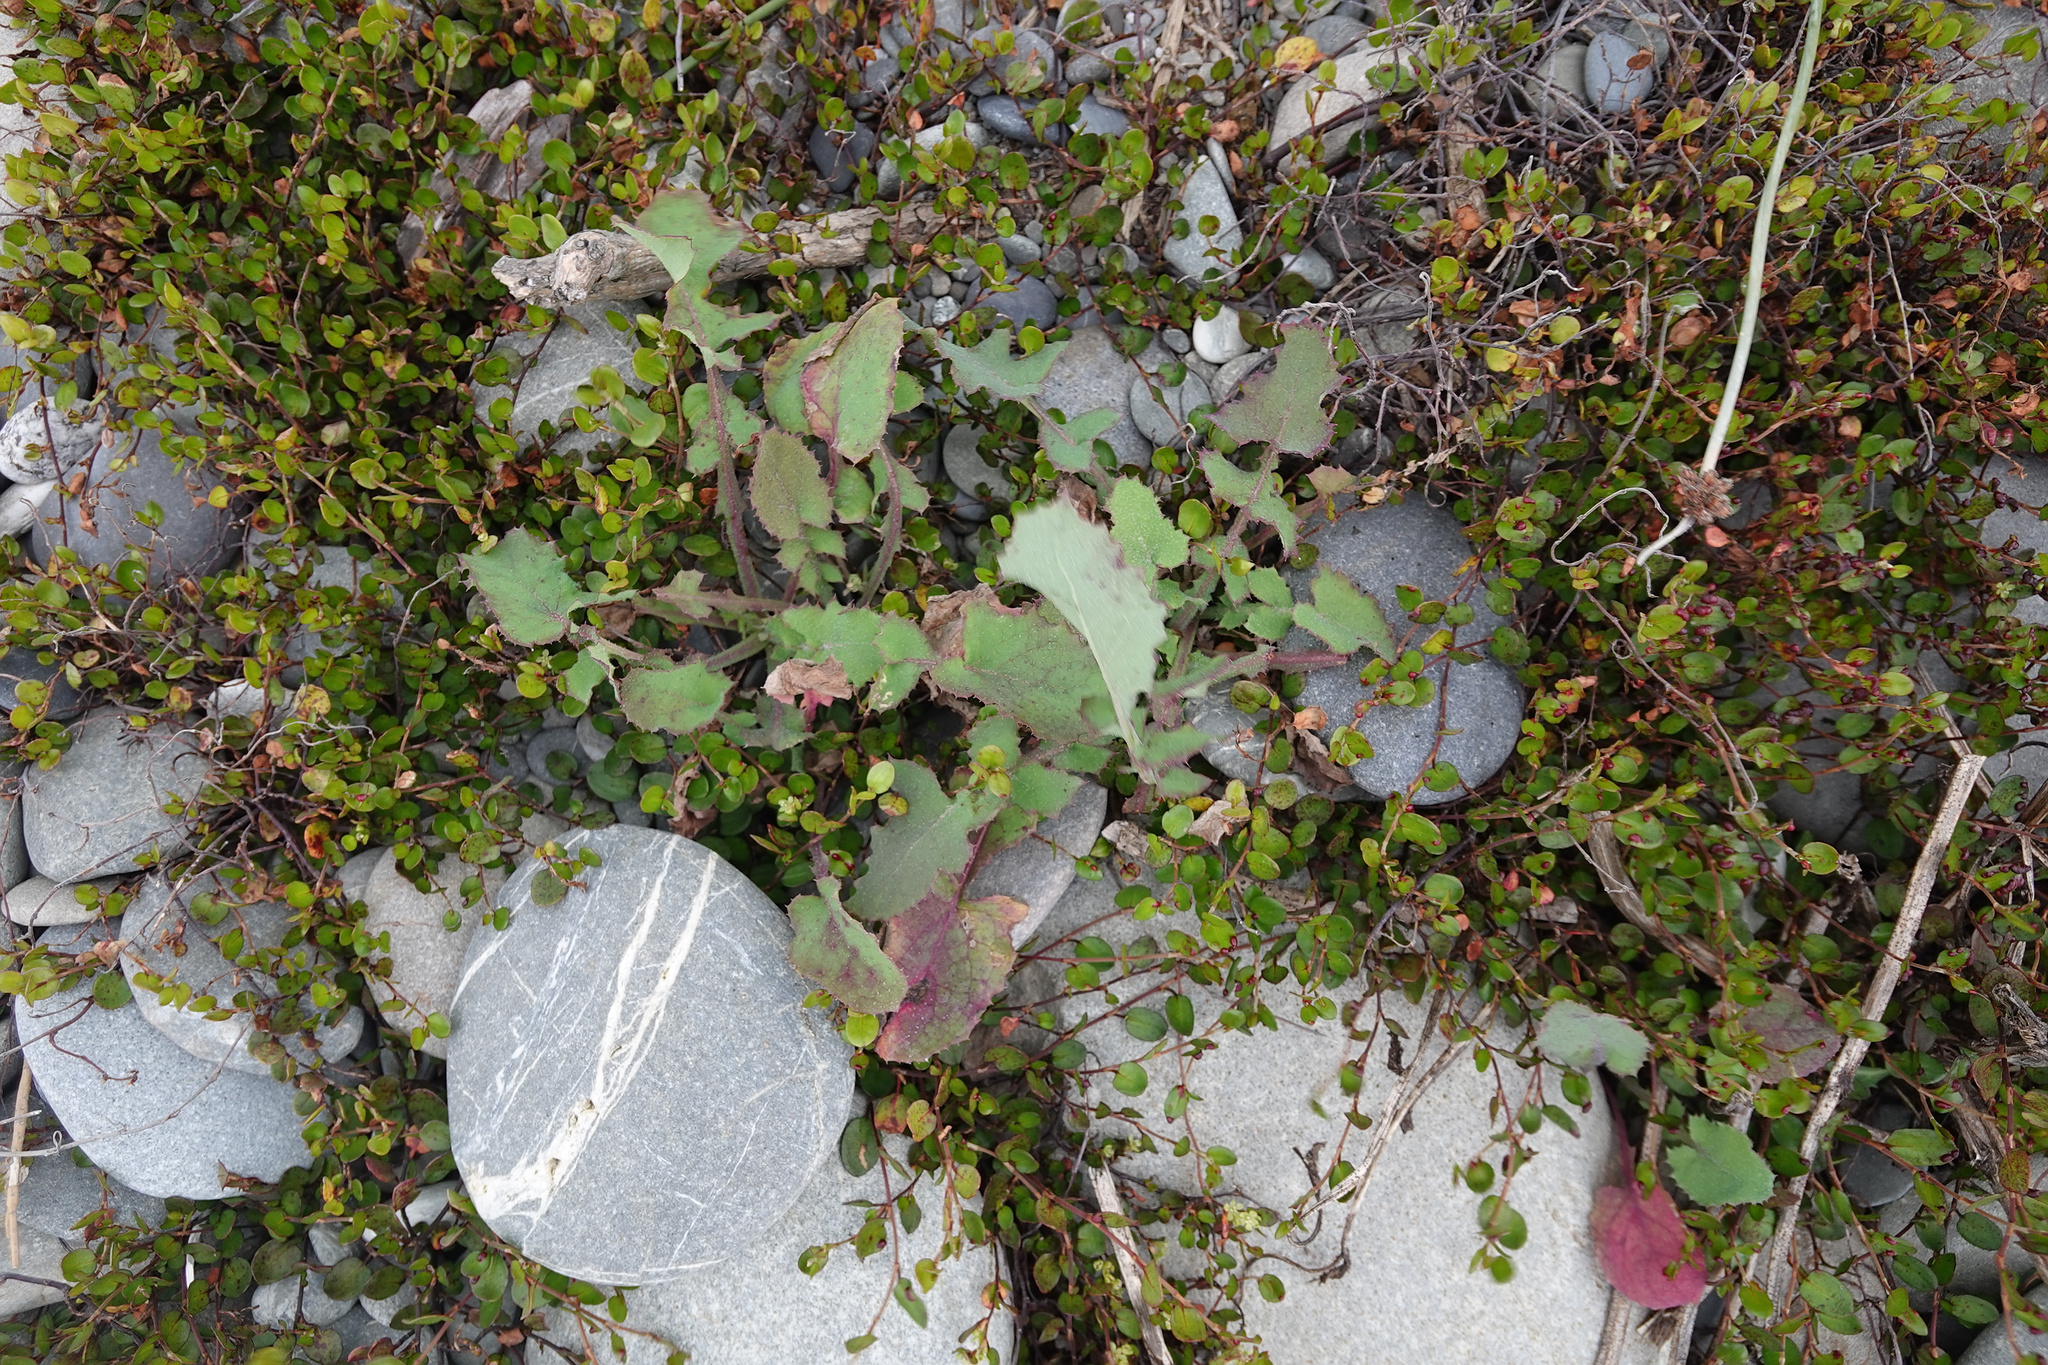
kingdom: Plantae
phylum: Tracheophyta
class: Magnoliopsida
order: Asterales
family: Asteraceae
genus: Sonchus
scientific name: Sonchus oleraceus
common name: Common sowthistle
